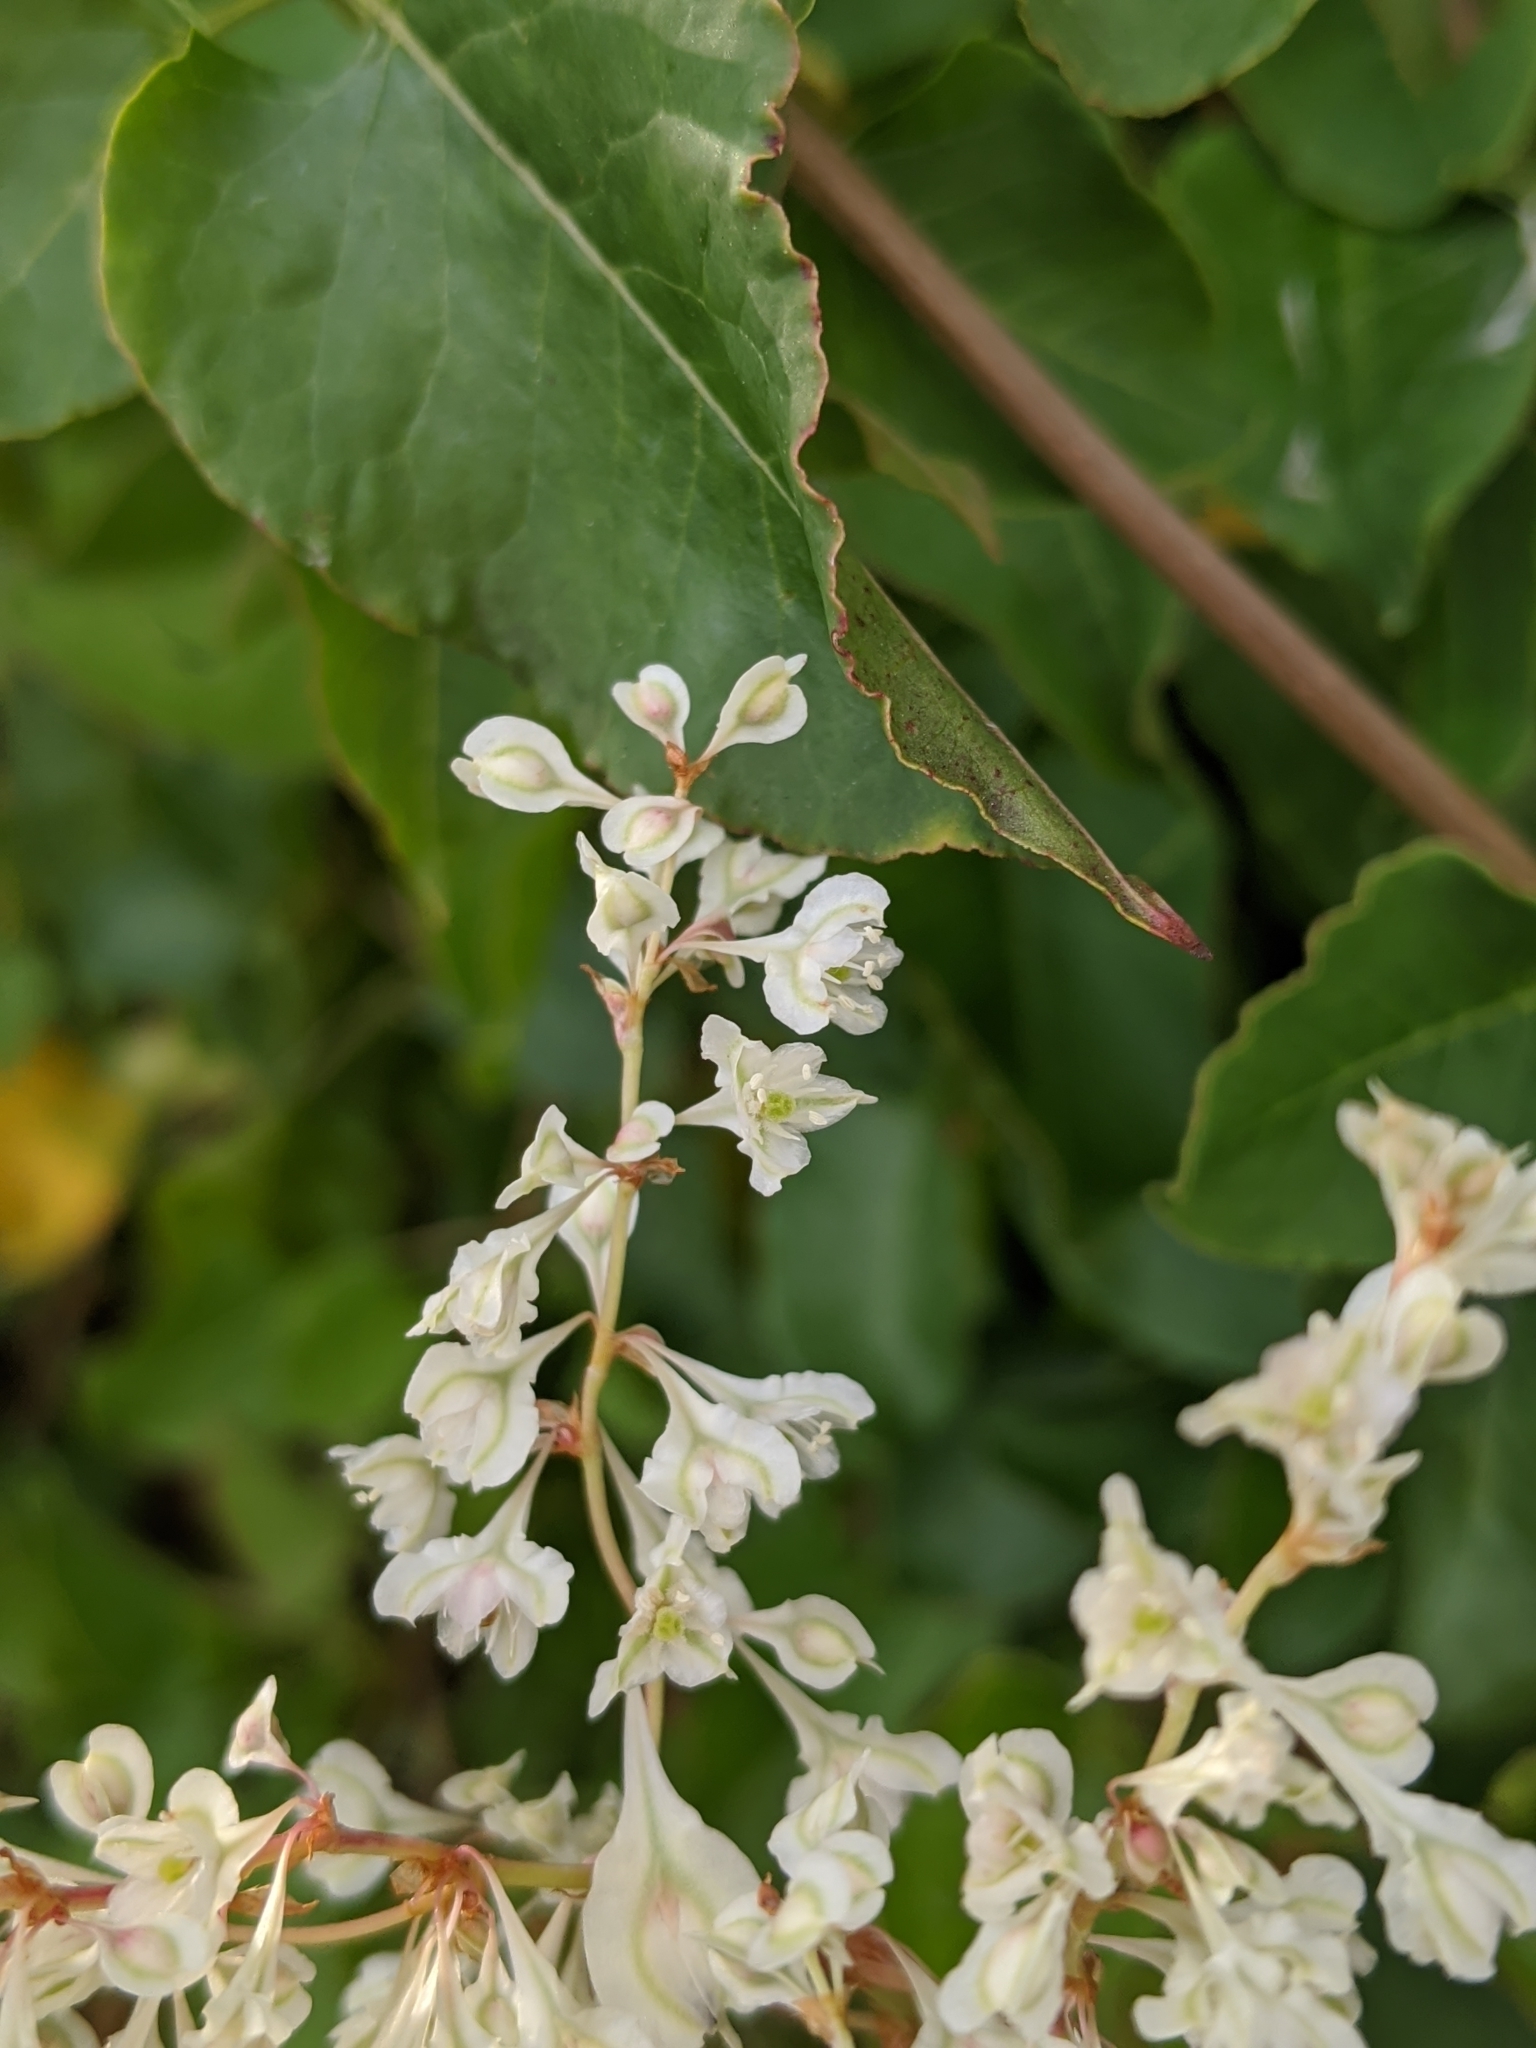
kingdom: Plantae
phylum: Tracheophyta
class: Magnoliopsida
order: Caryophyllales
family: Polygonaceae
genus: Fallopia
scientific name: Fallopia baldschuanica
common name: Russian-vine
